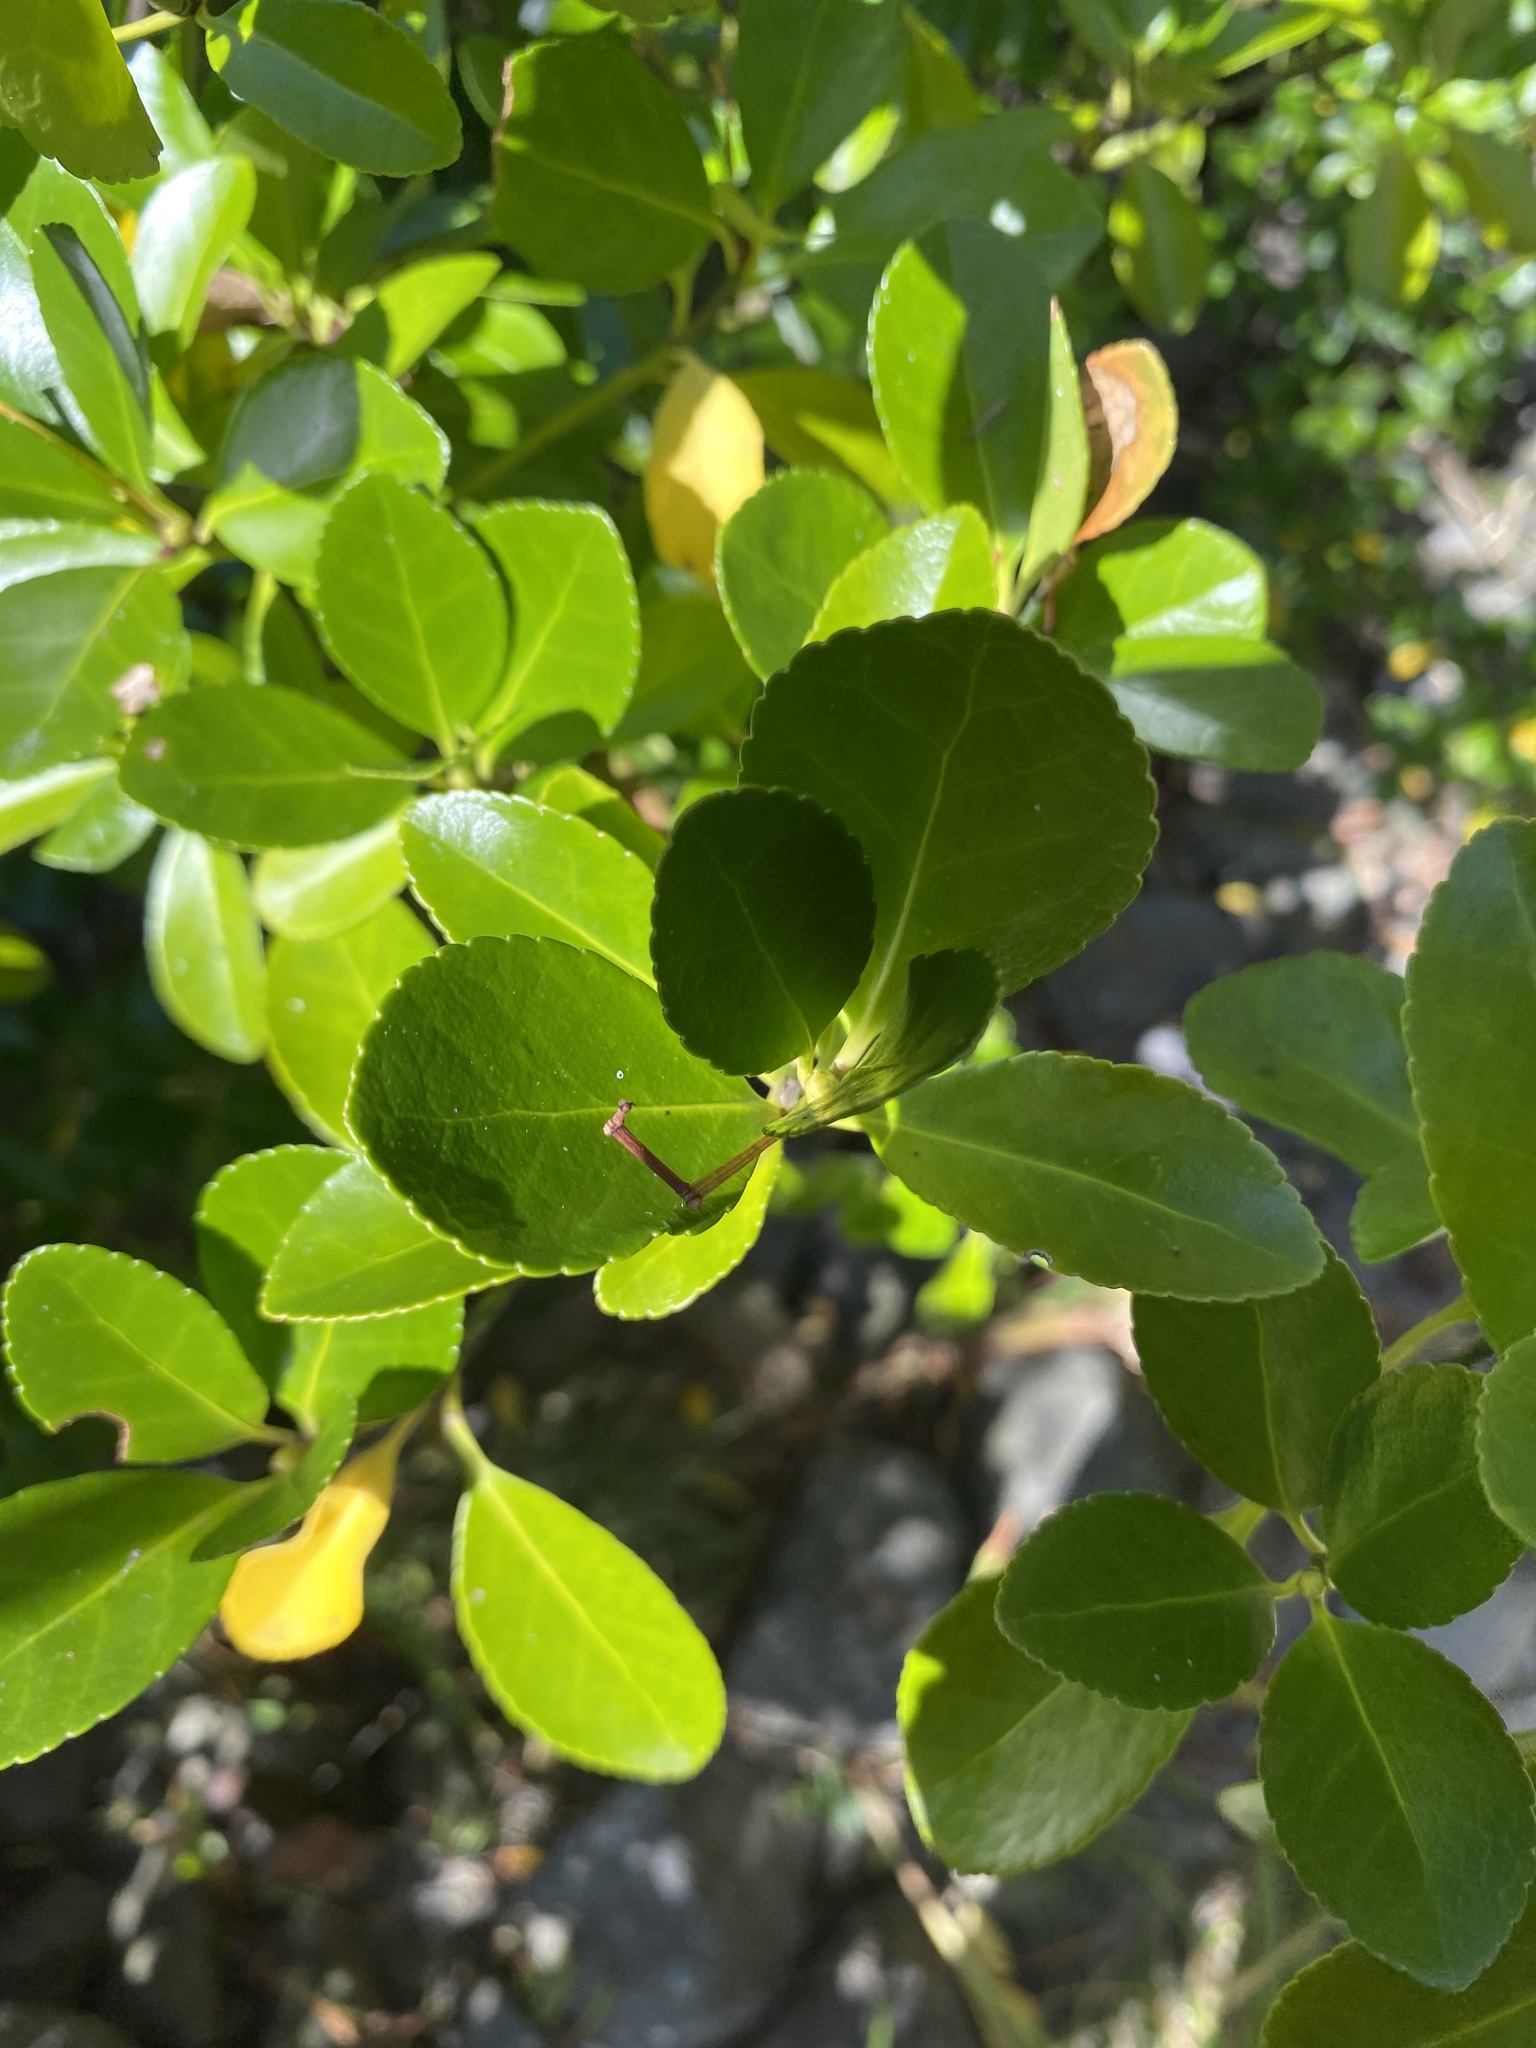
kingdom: Plantae
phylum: Tracheophyta
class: Magnoliopsida
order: Celastrales
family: Celastraceae
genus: Euonymus
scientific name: Euonymus japonicus
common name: Japanese spindletree
